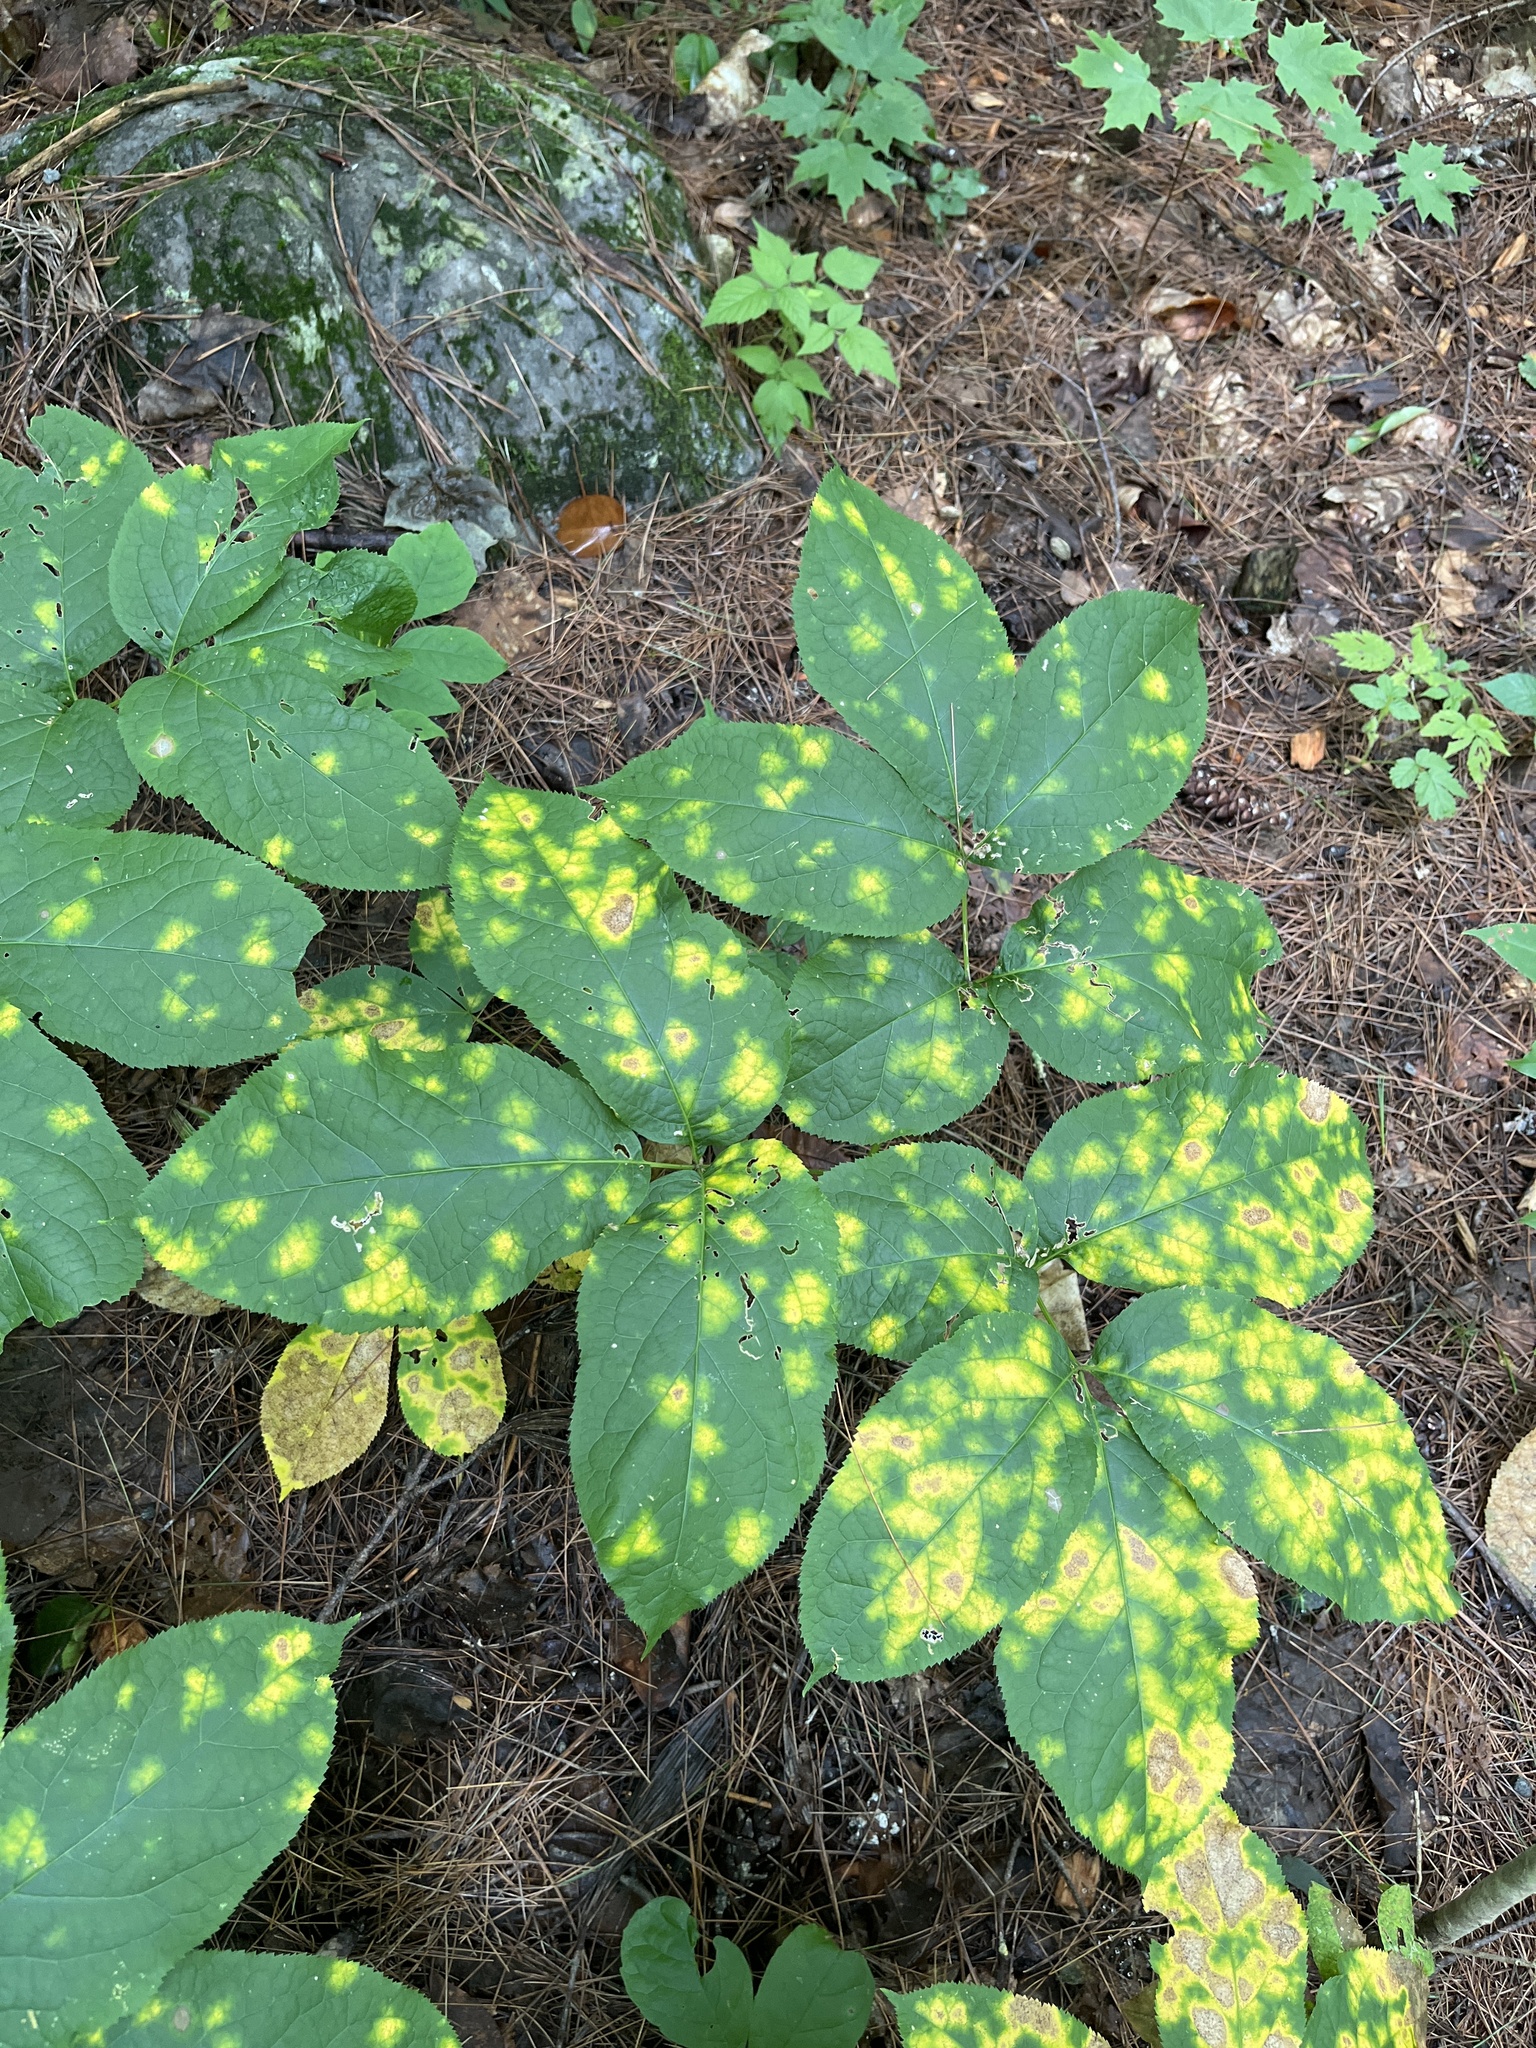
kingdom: Plantae
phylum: Tracheophyta
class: Magnoliopsida
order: Apiales
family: Araliaceae
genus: Aralia
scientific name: Aralia nudicaulis
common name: Wild sarsaparilla
